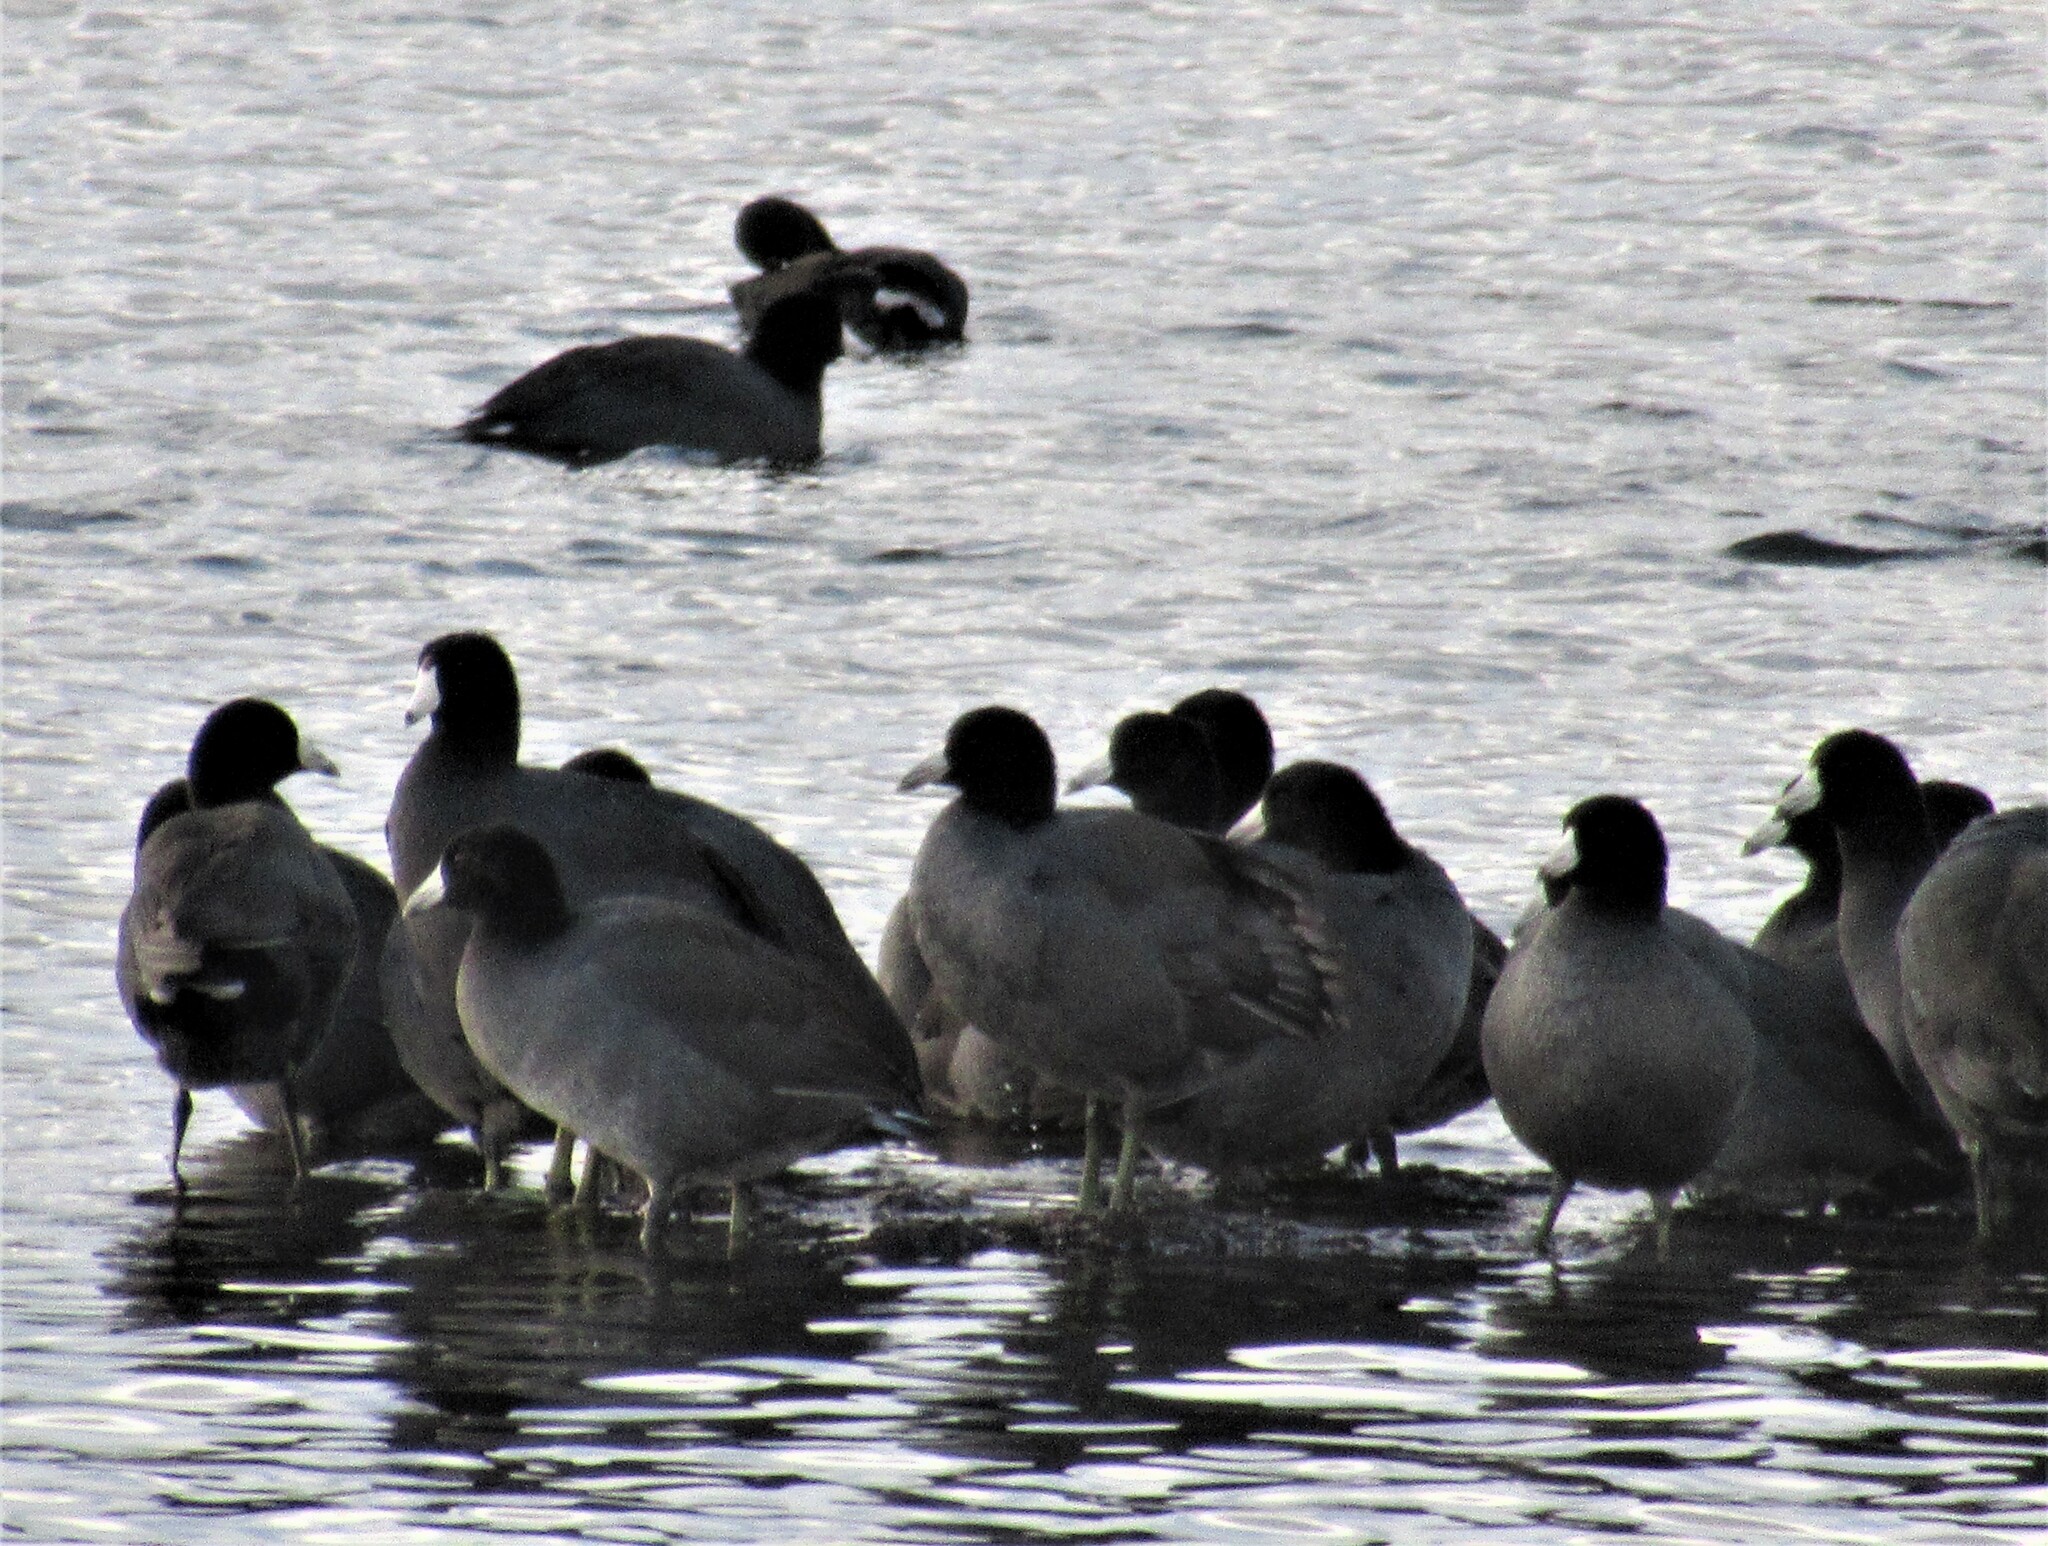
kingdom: Animalia
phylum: Chordata
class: Aves
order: Gruiformes
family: Rallidae
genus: Fulica
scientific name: Fulica americana
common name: American coot
